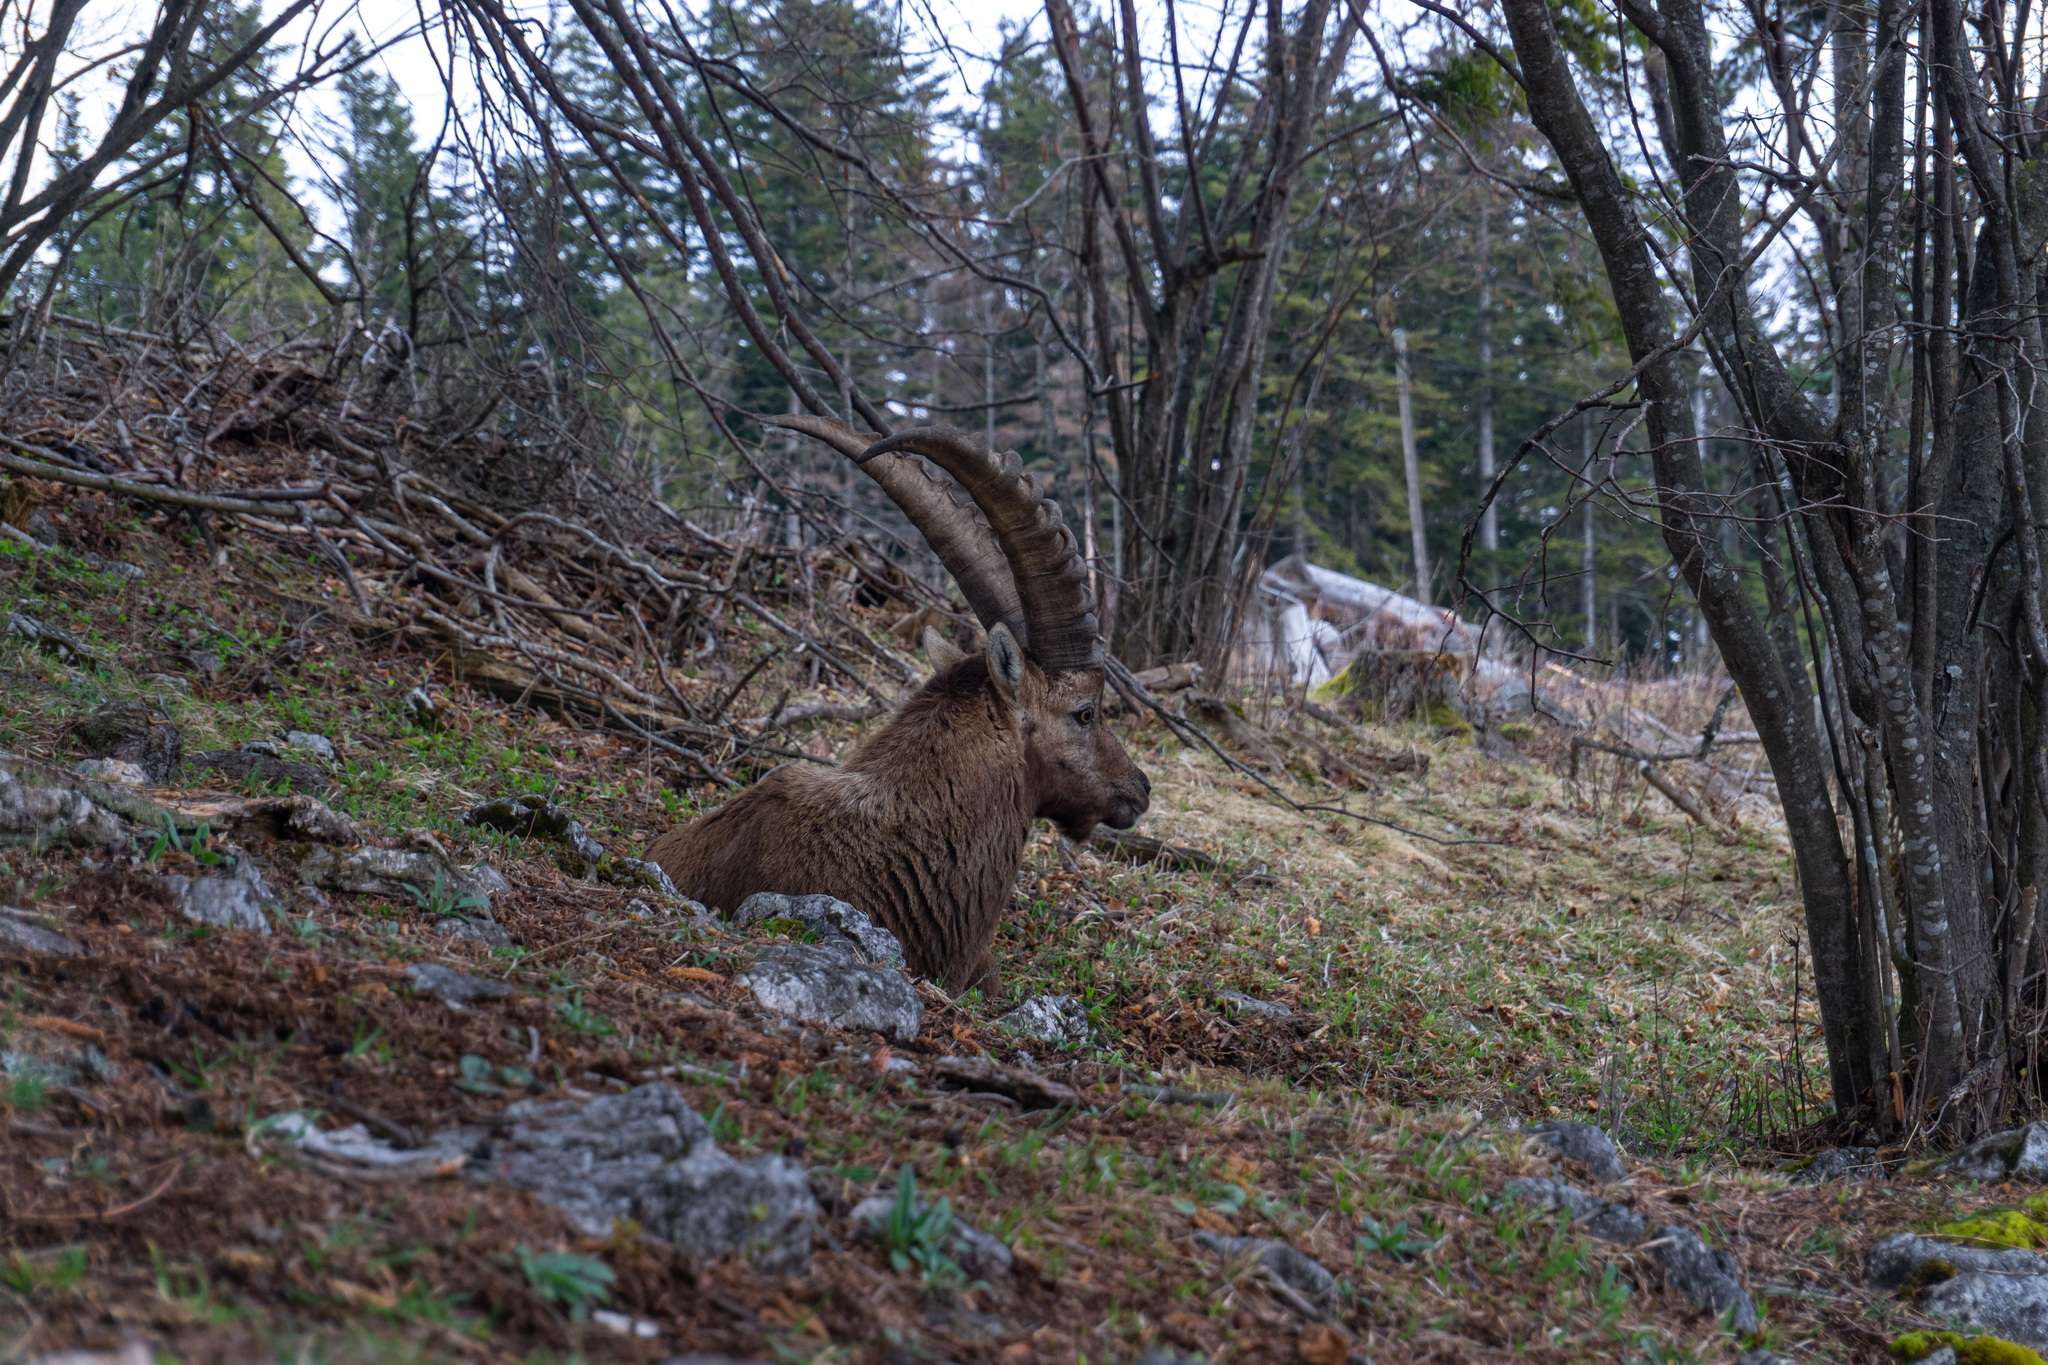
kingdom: Animalia
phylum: Chordata
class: Mammalia
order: Artiodactyla
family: Bovidae
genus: Capra
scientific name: Capra ibex
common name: Alpine ibex
